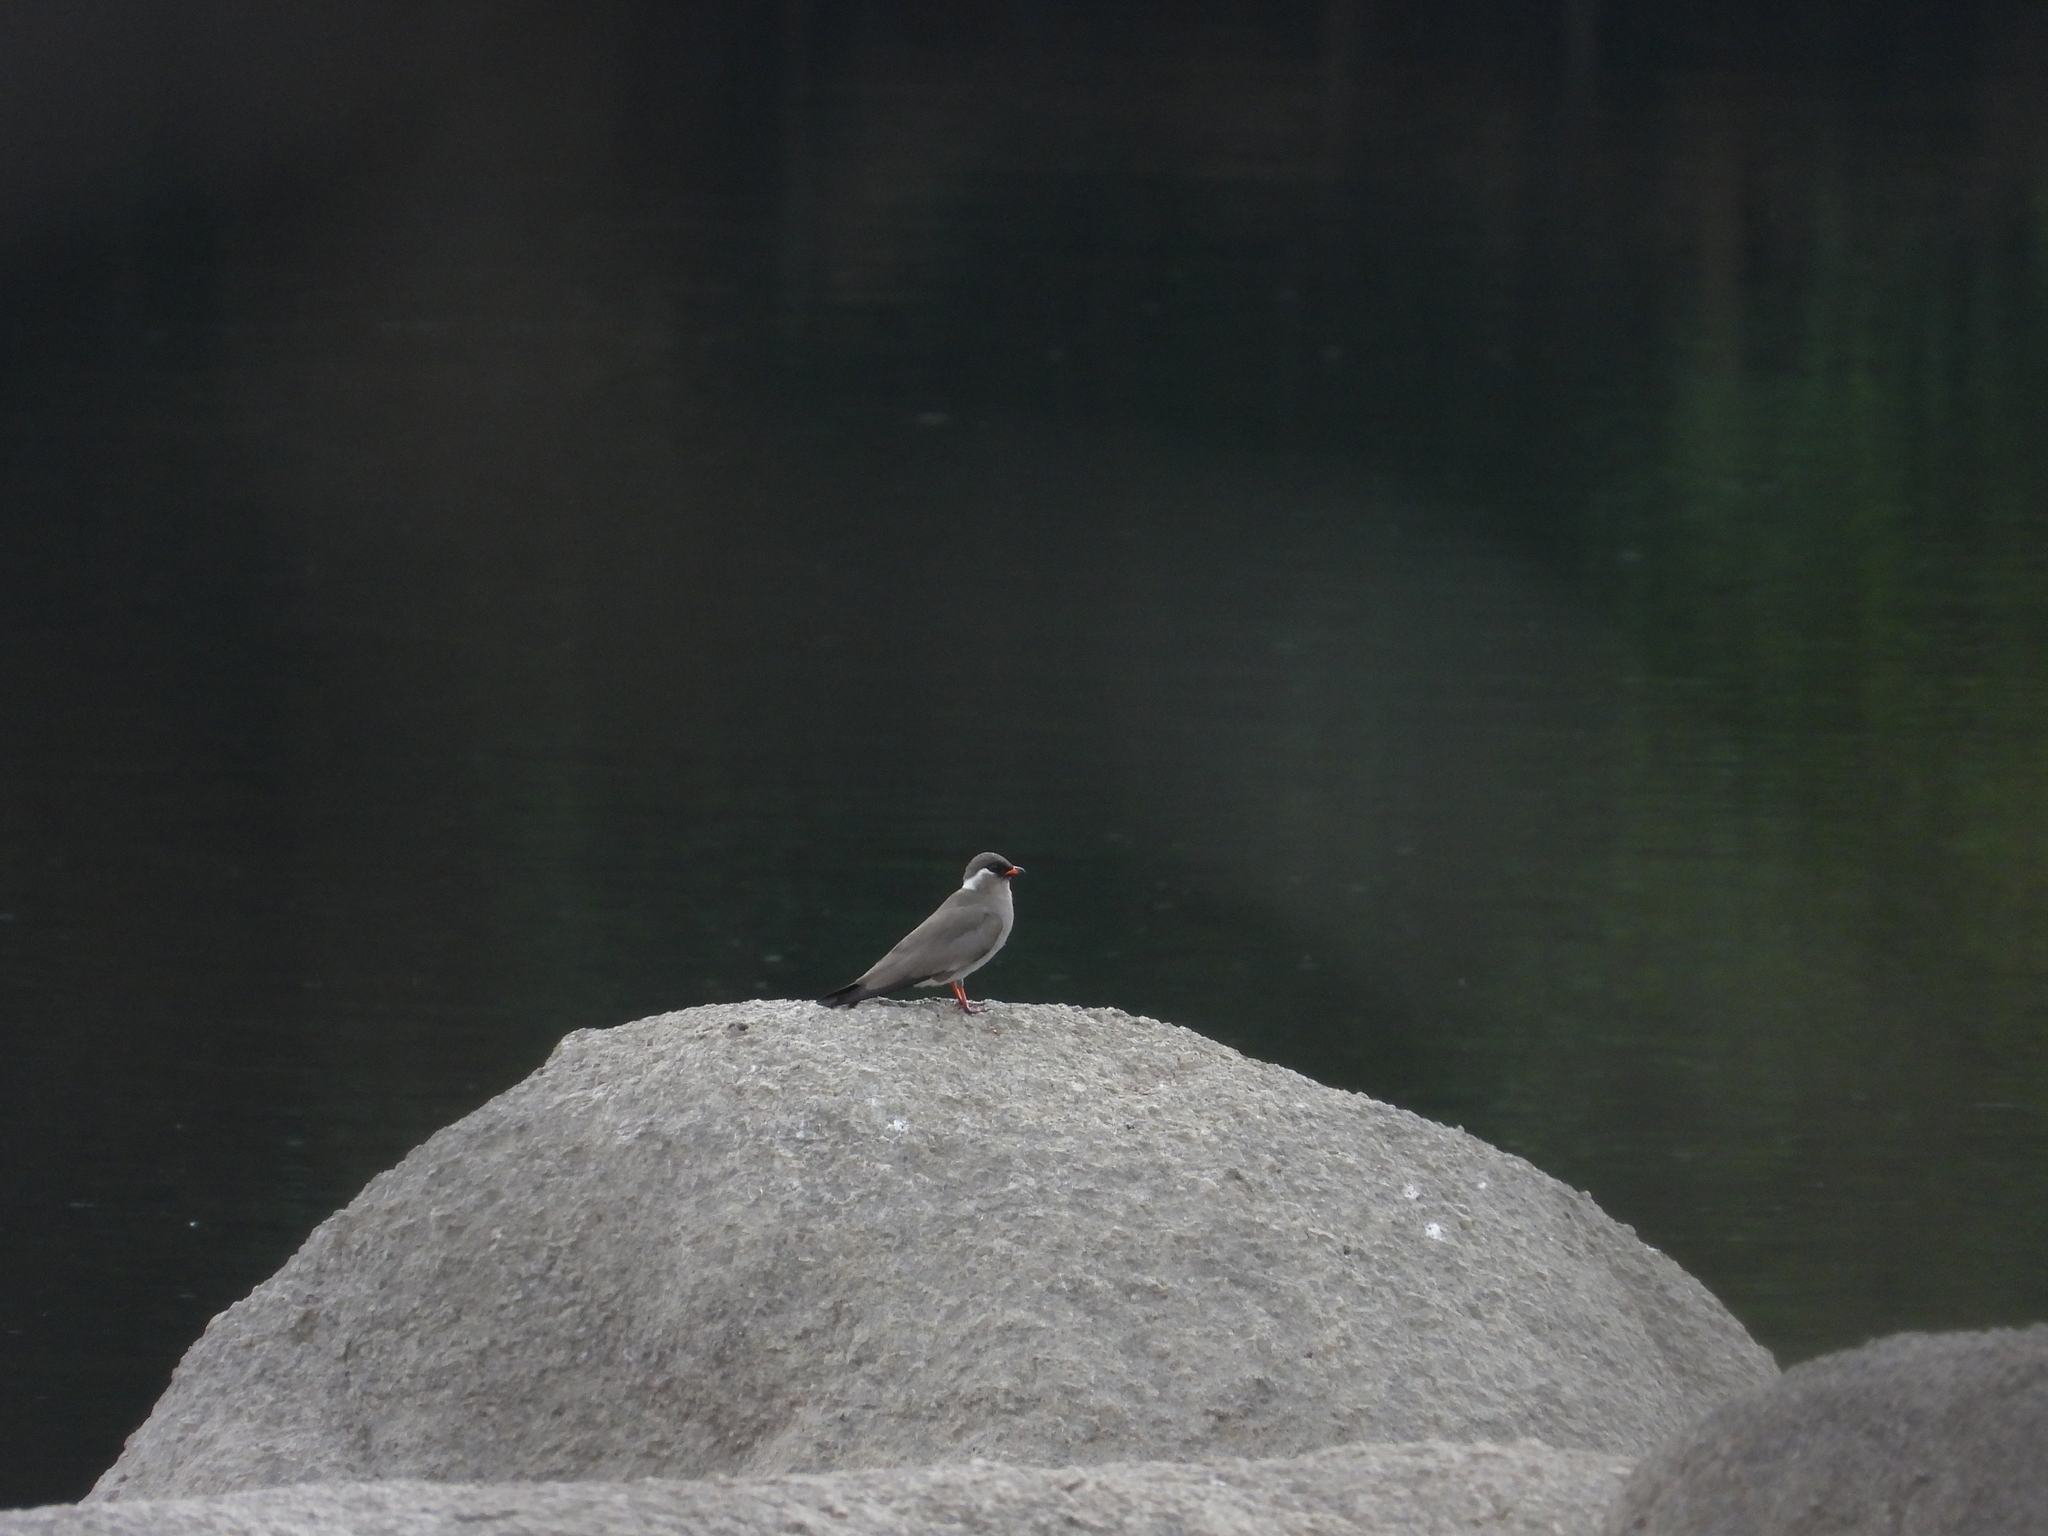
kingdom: Animalia
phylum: Chordata
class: Aves
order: Charadriiformes
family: Glareolidae
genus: Glareola
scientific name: Glareola nuchalis
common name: Rock pratincole
